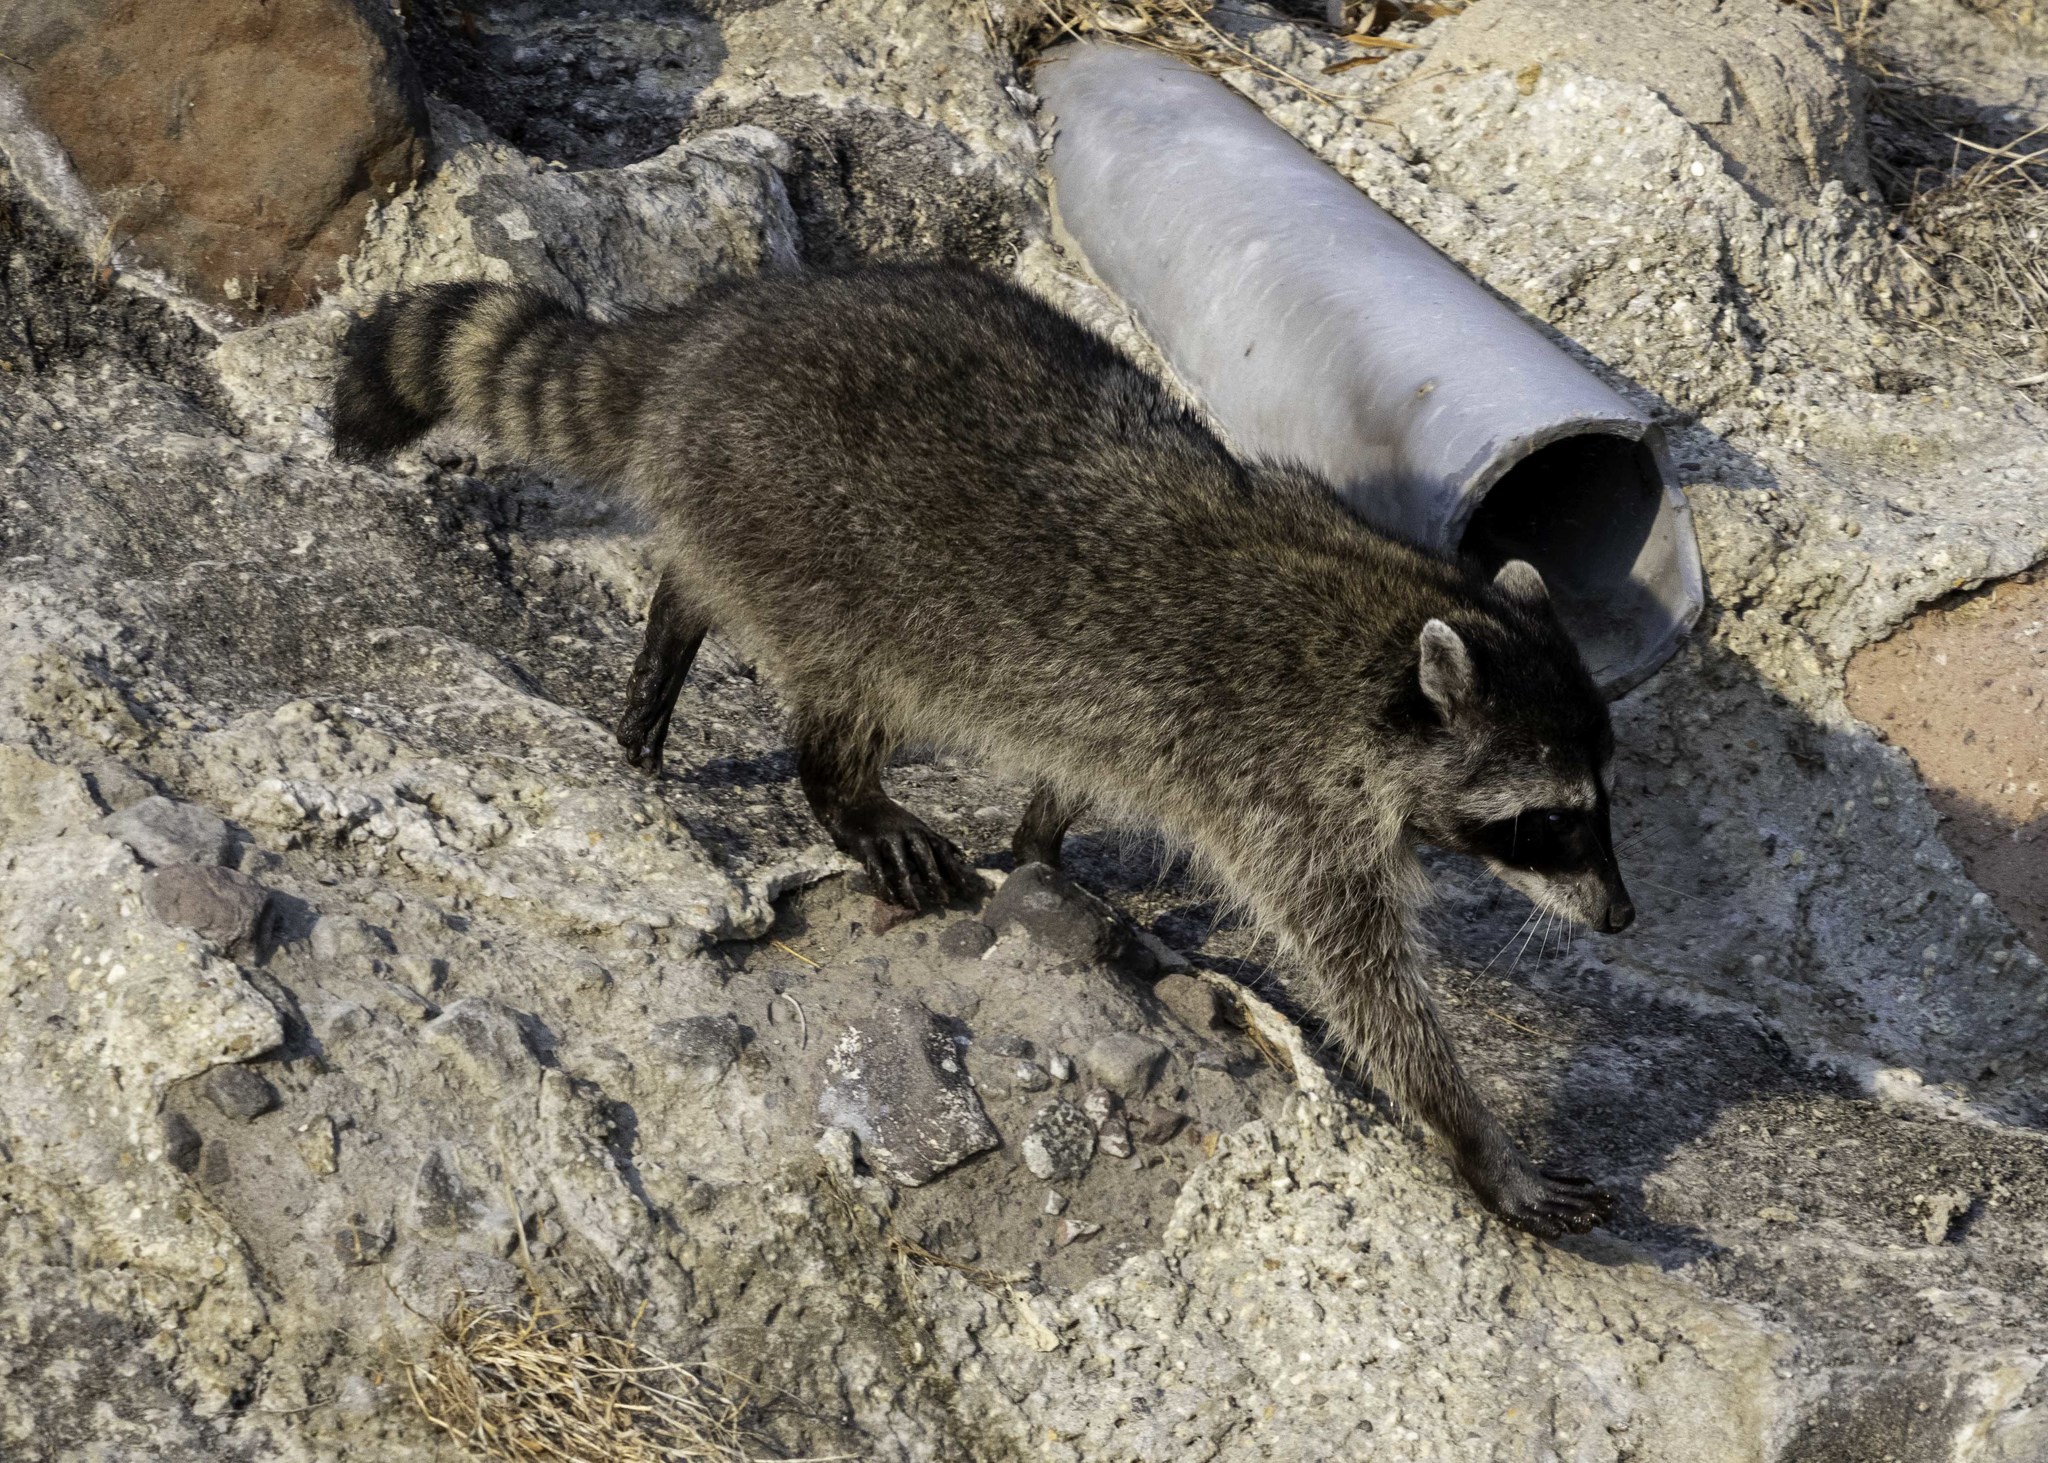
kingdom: Animalia
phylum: Chordata
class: Mammalia
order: Carnivora
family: Procyonidae
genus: Procyon
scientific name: Procyon lotor
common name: Raccoon
